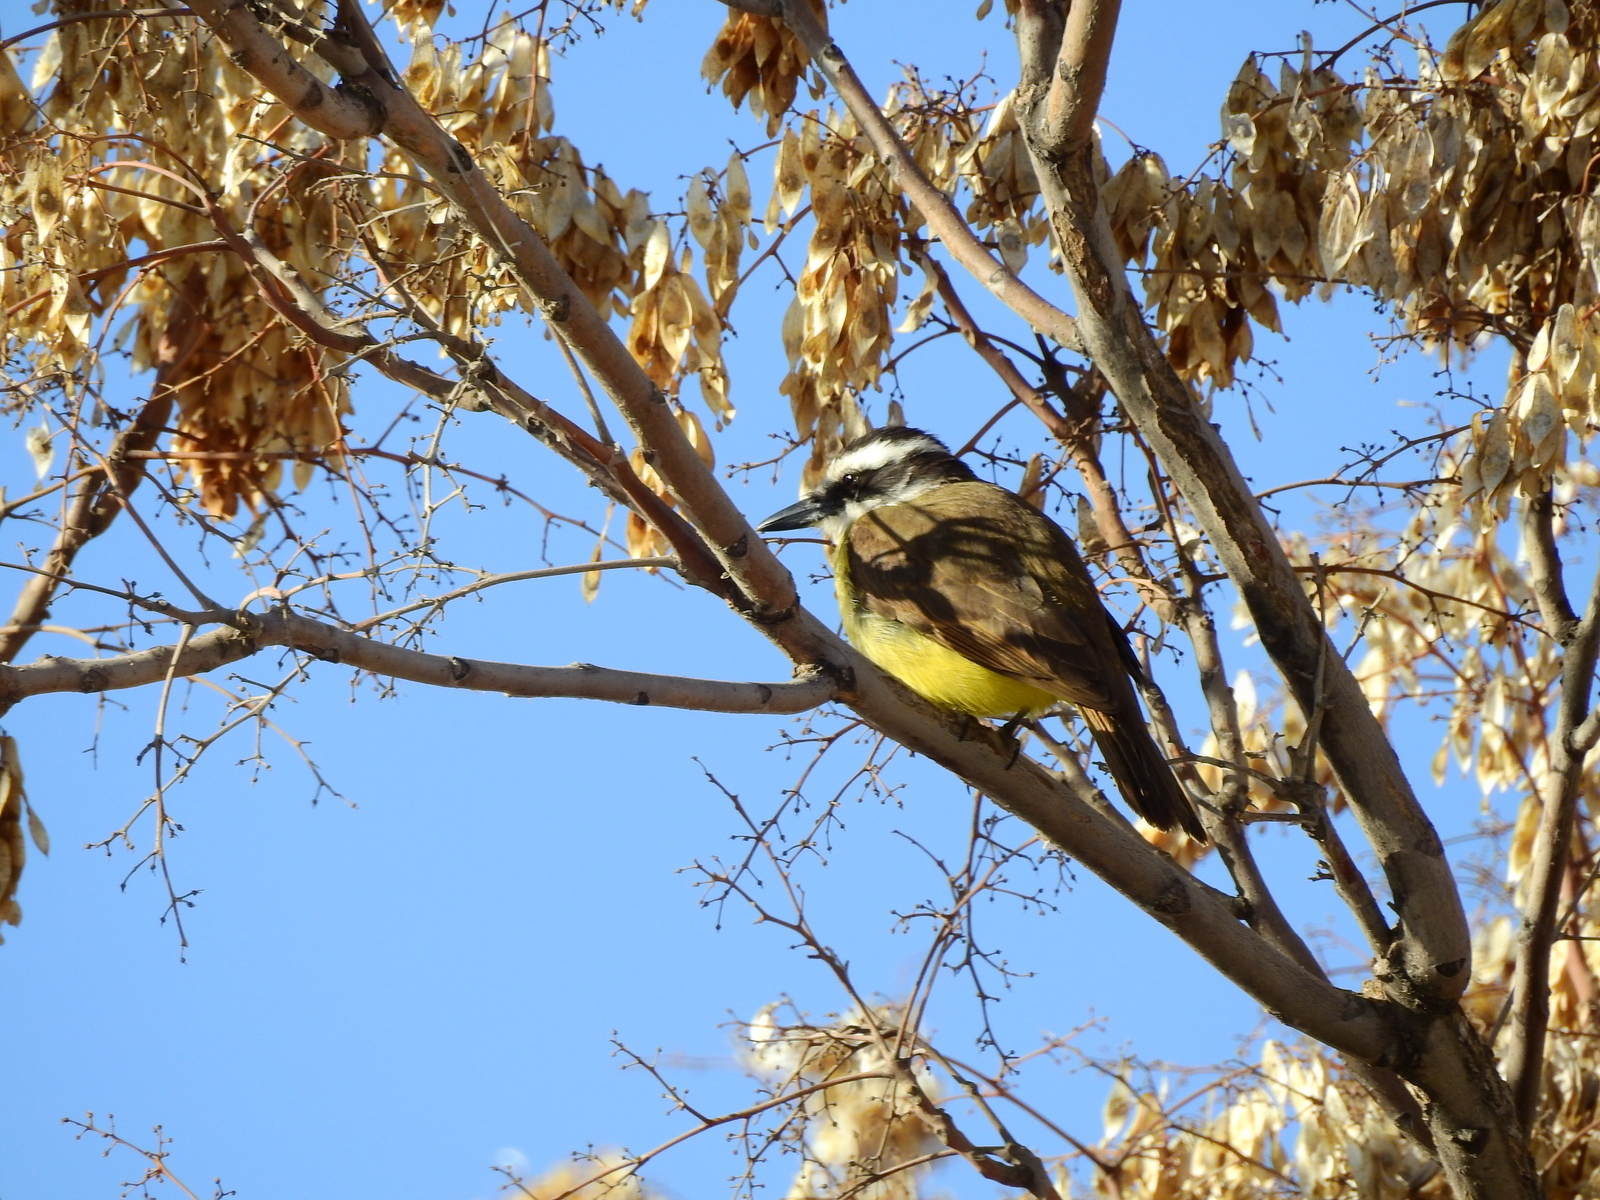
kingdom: Animalia
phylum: Chordata
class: Aves
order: Passeriformes
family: Tyrannidae
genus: Pitangus
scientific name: Pitangus sulphuratus
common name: Great kiskadee
